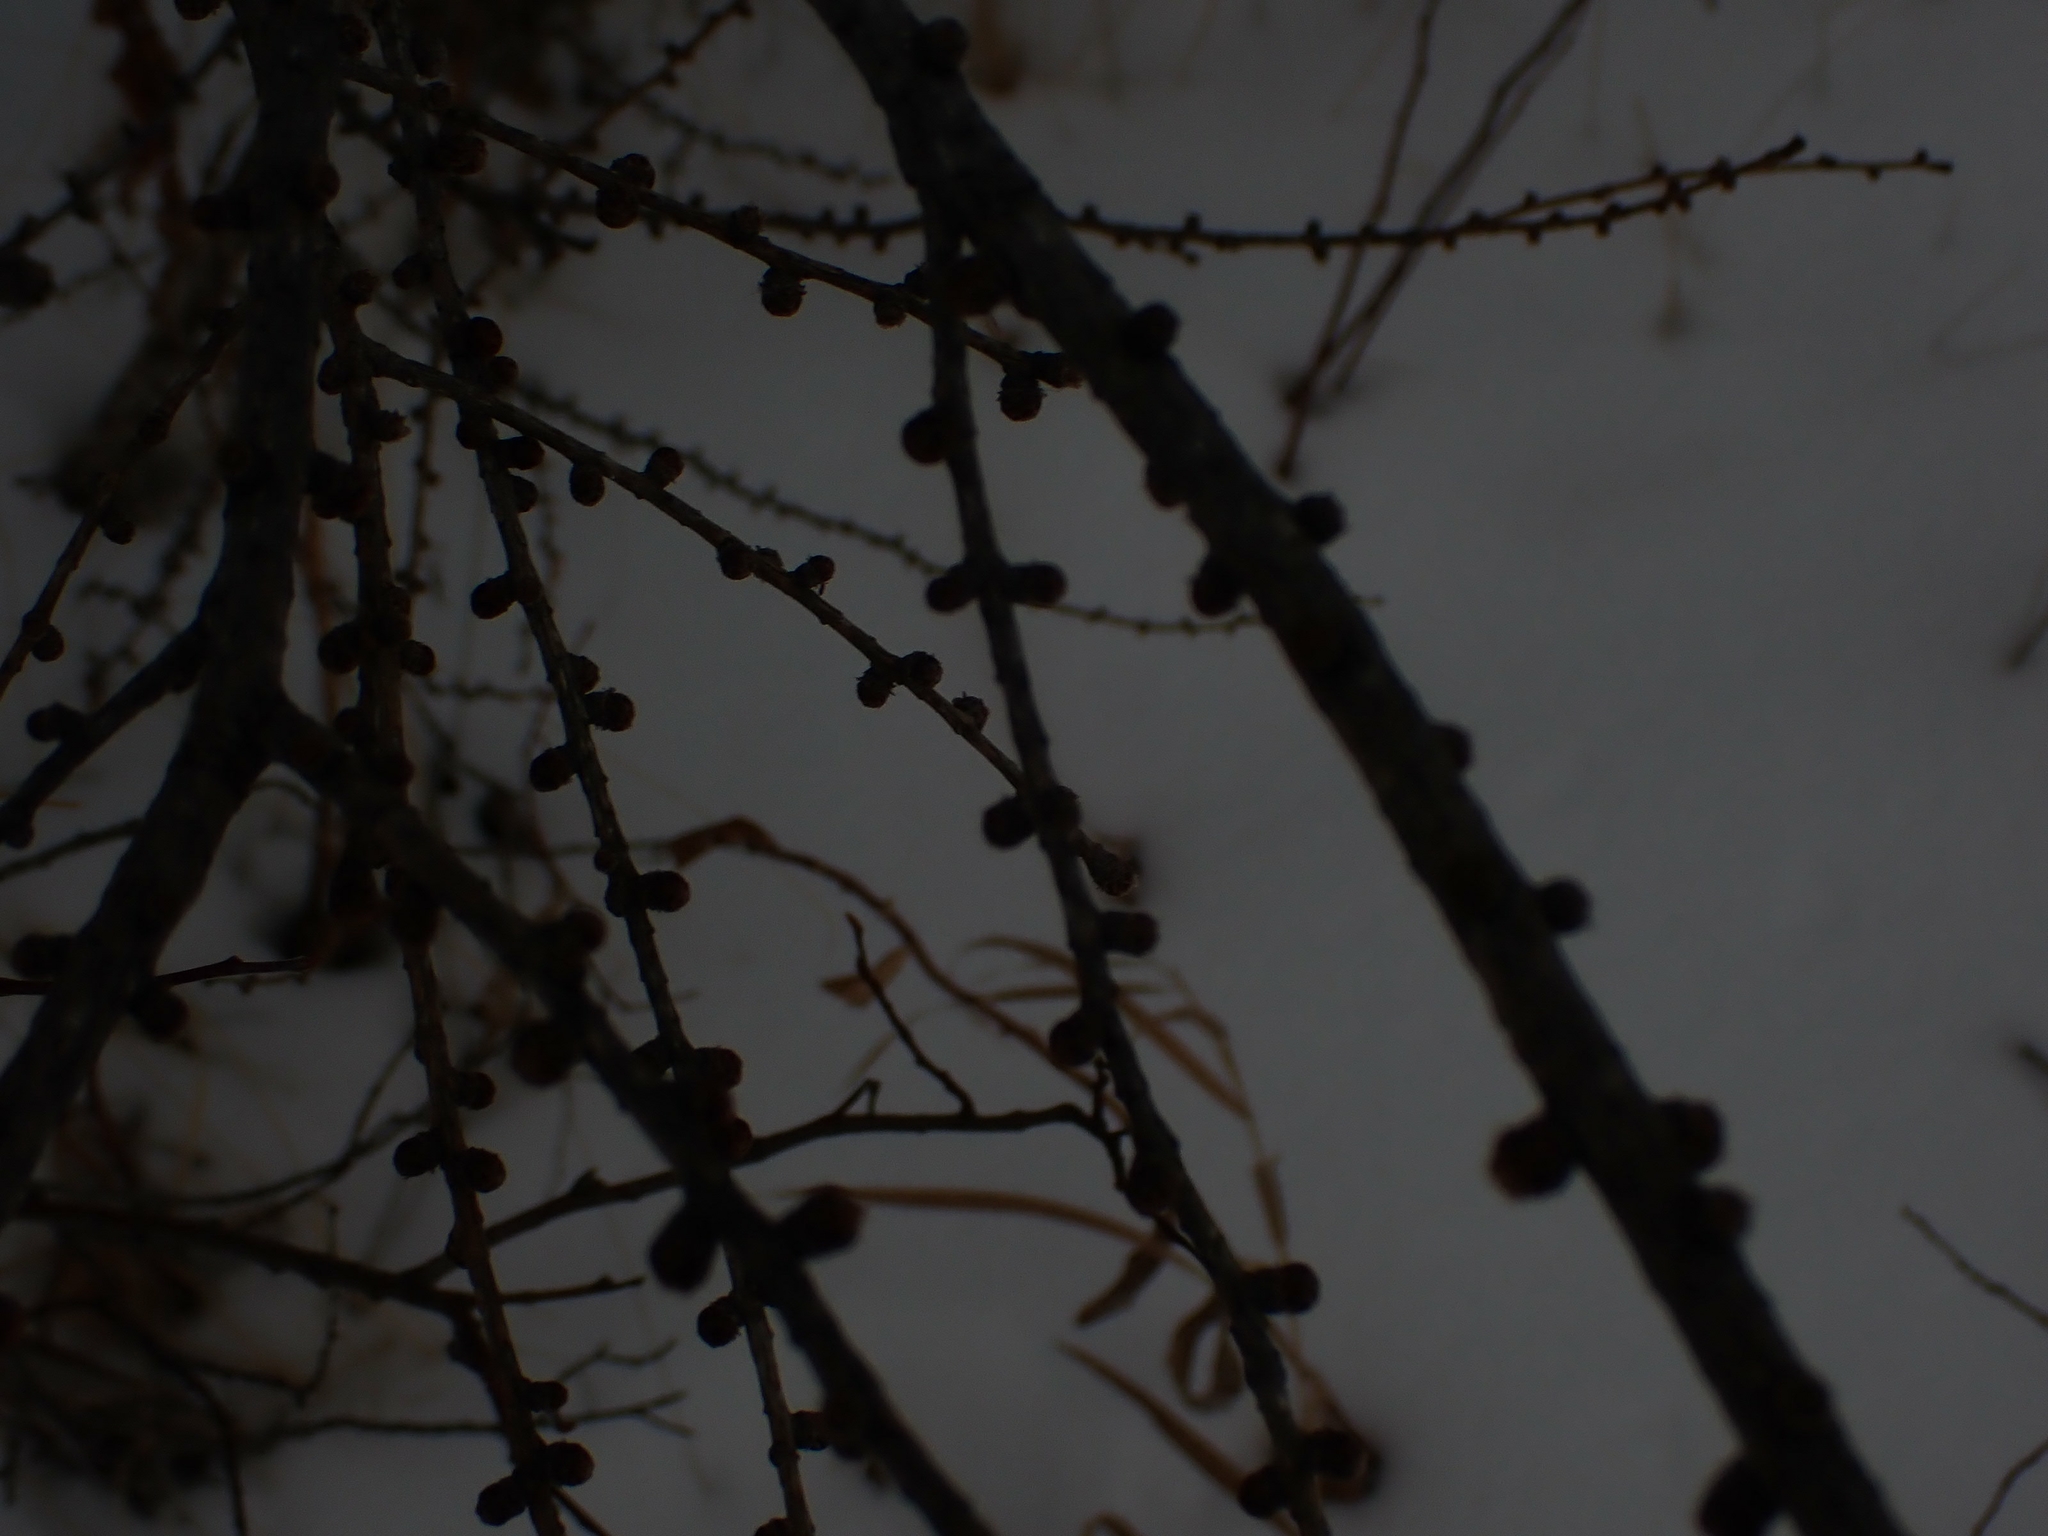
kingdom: Plantae
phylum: Tracheophyta
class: Pinopsida
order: Pinales
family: Pinaceae
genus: Larix
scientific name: Larix laricina
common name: American larch
